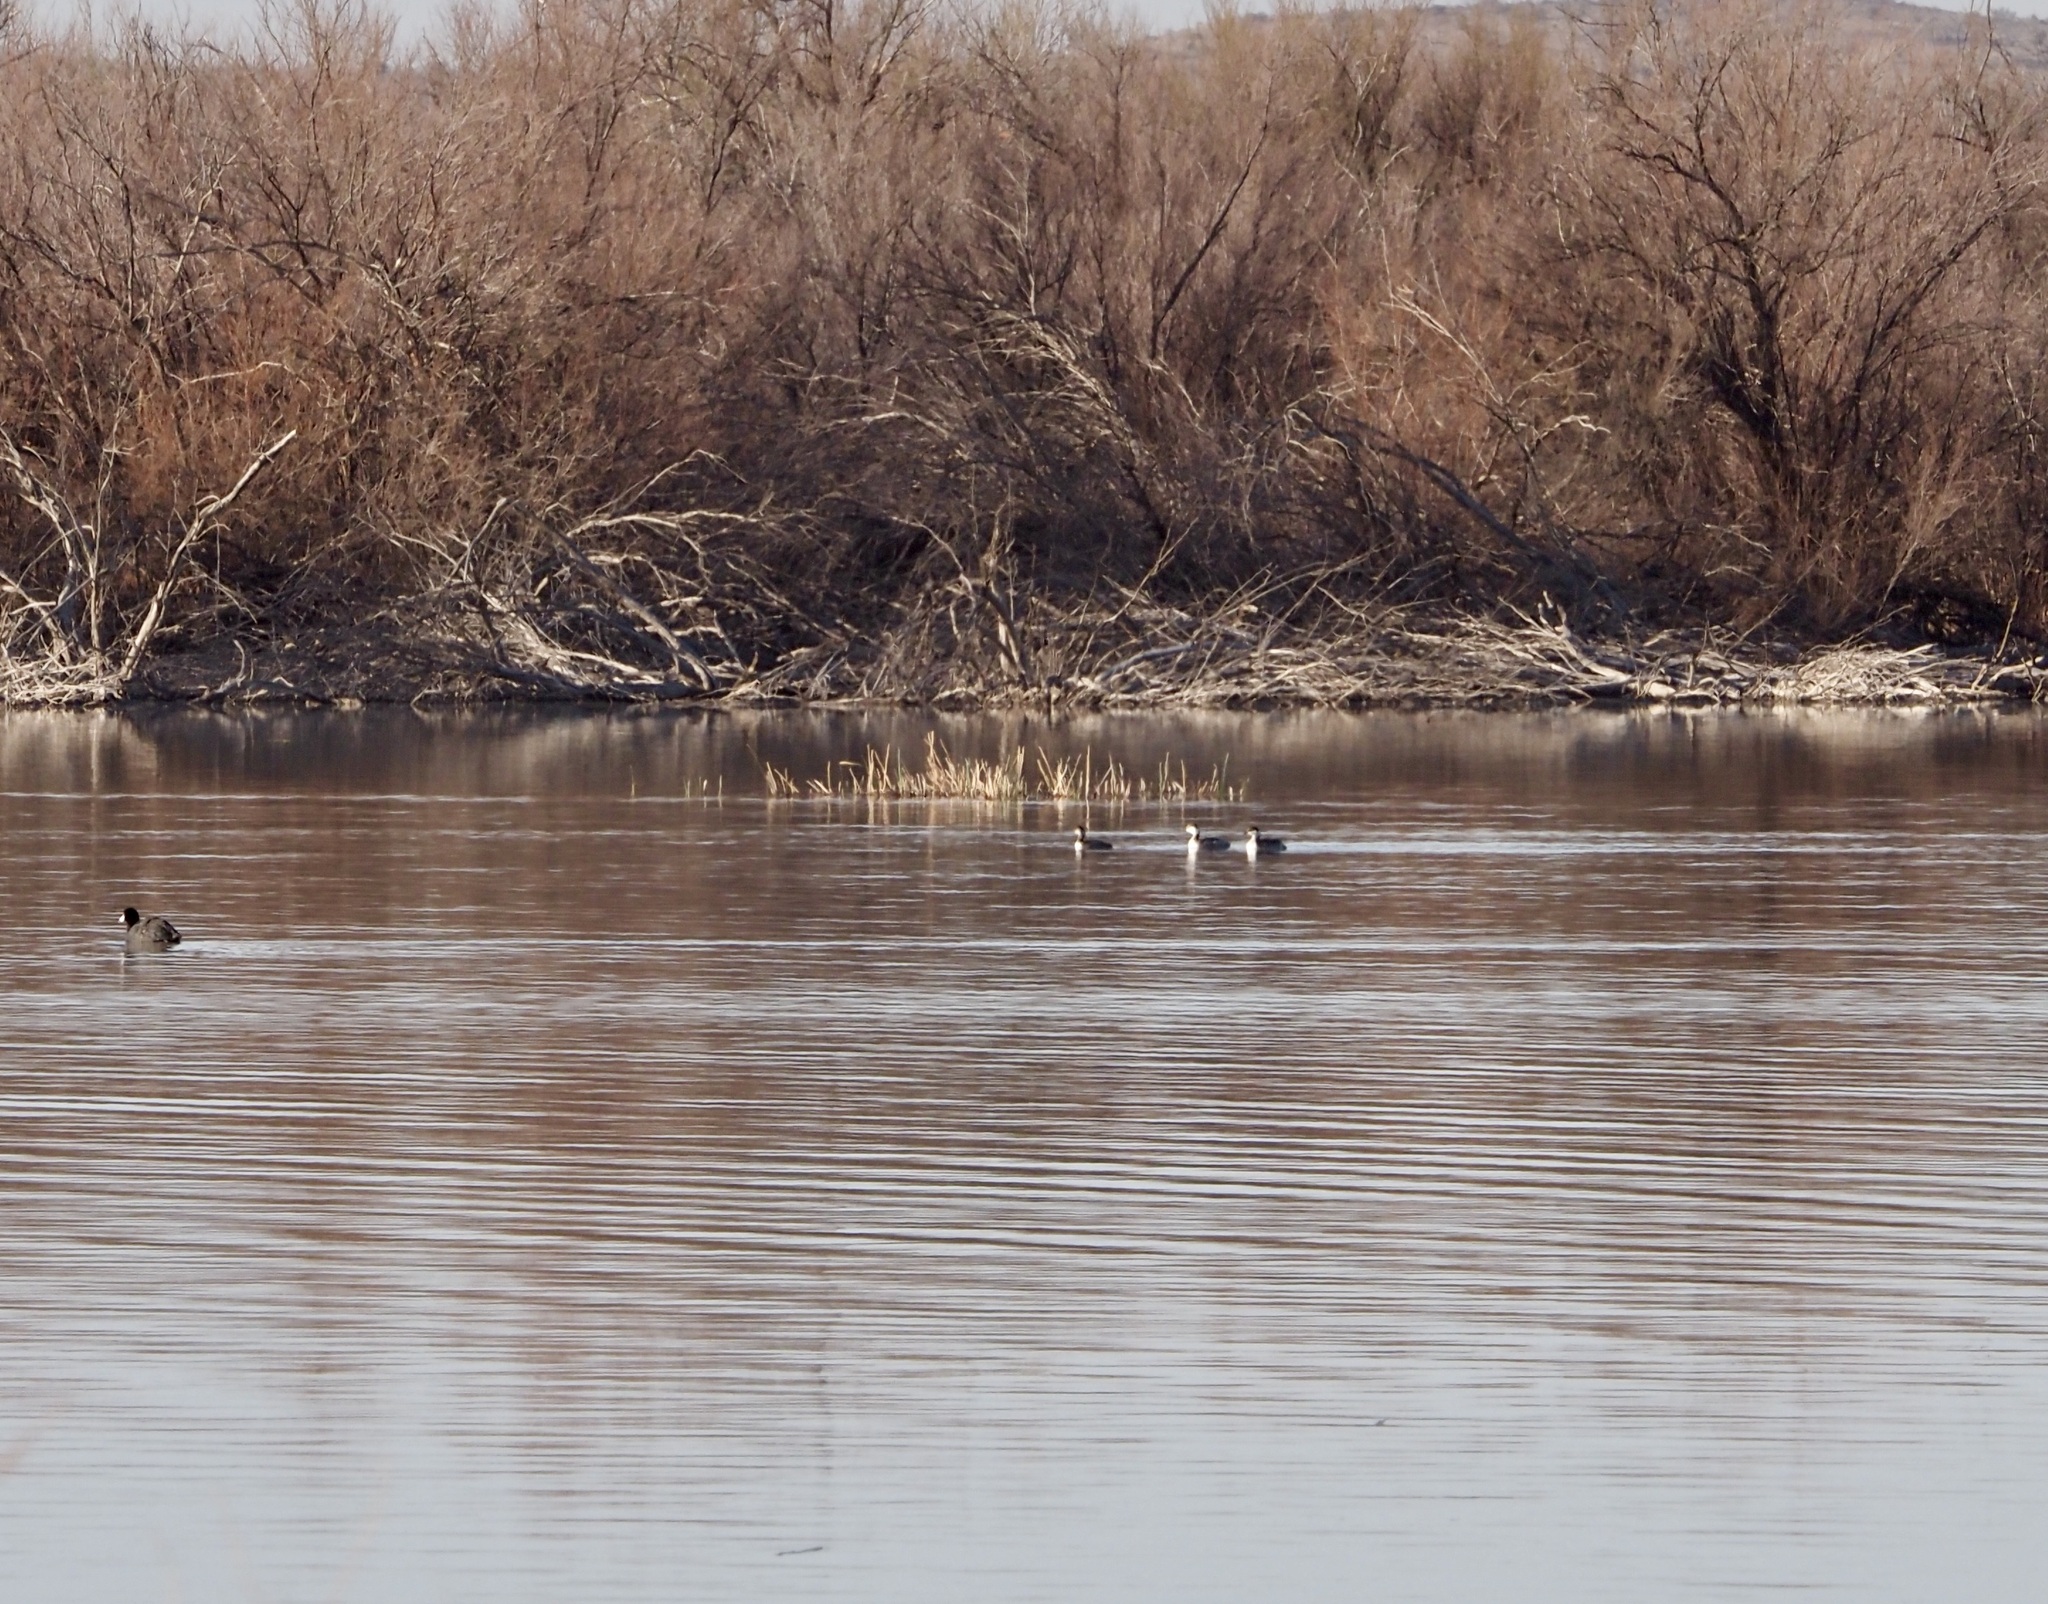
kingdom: Animalia
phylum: Chordata
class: Aves
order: Podicipediformes
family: Podicipedidae
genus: Podiceps
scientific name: Podiceps auritus
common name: Horned grebe
